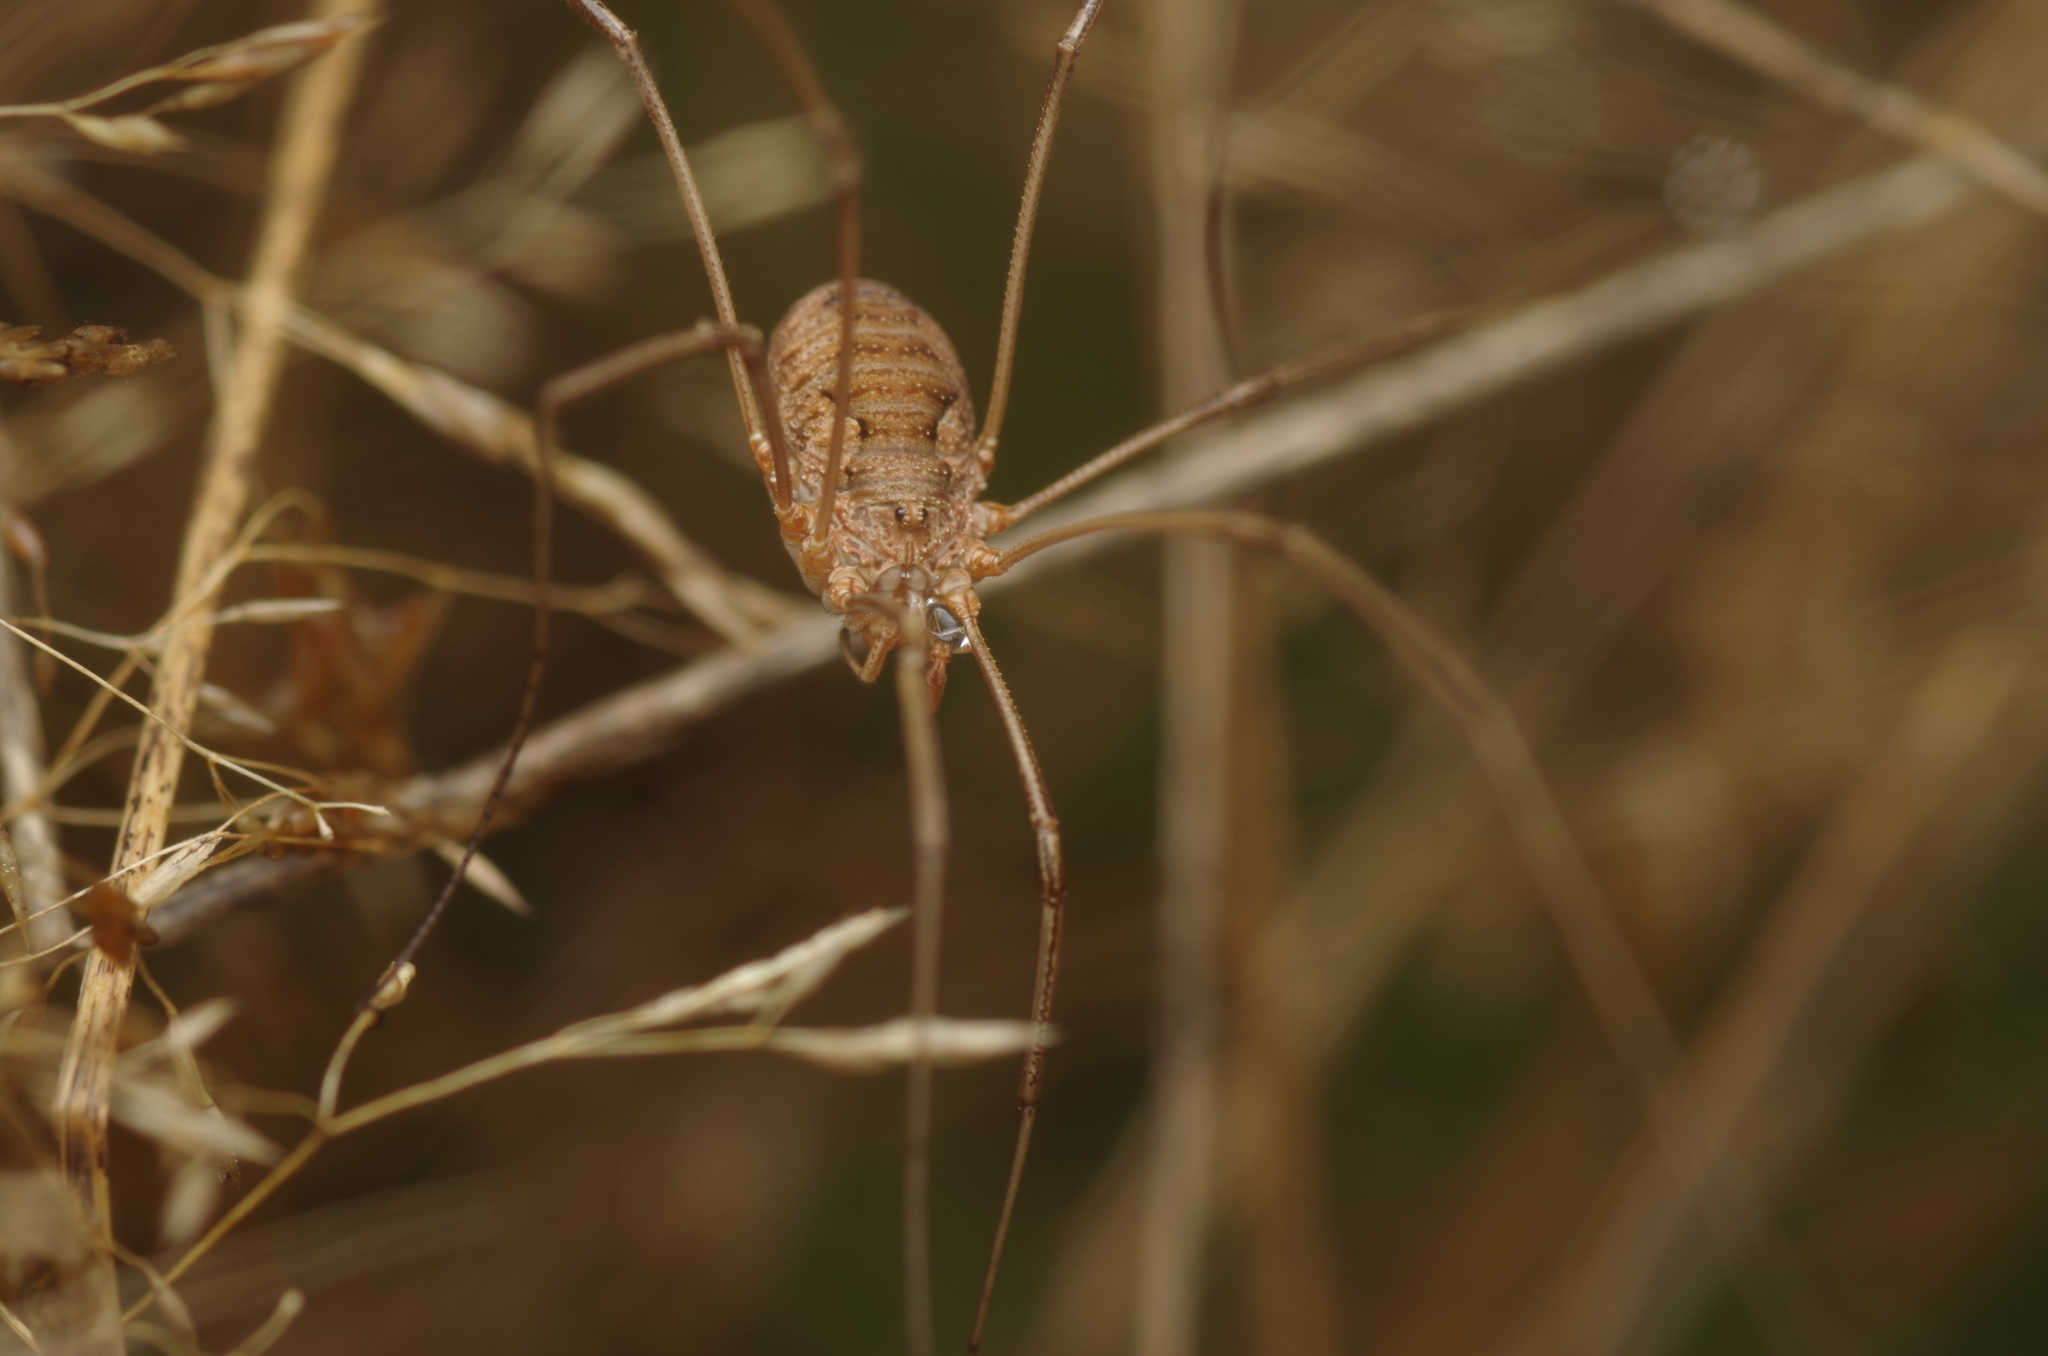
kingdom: Animalia
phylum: Arthropoda
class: Arachnida
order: Opiliones
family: Phalangiidae
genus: Phalangium
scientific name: Phalangium opilio
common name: Daddy longleg
